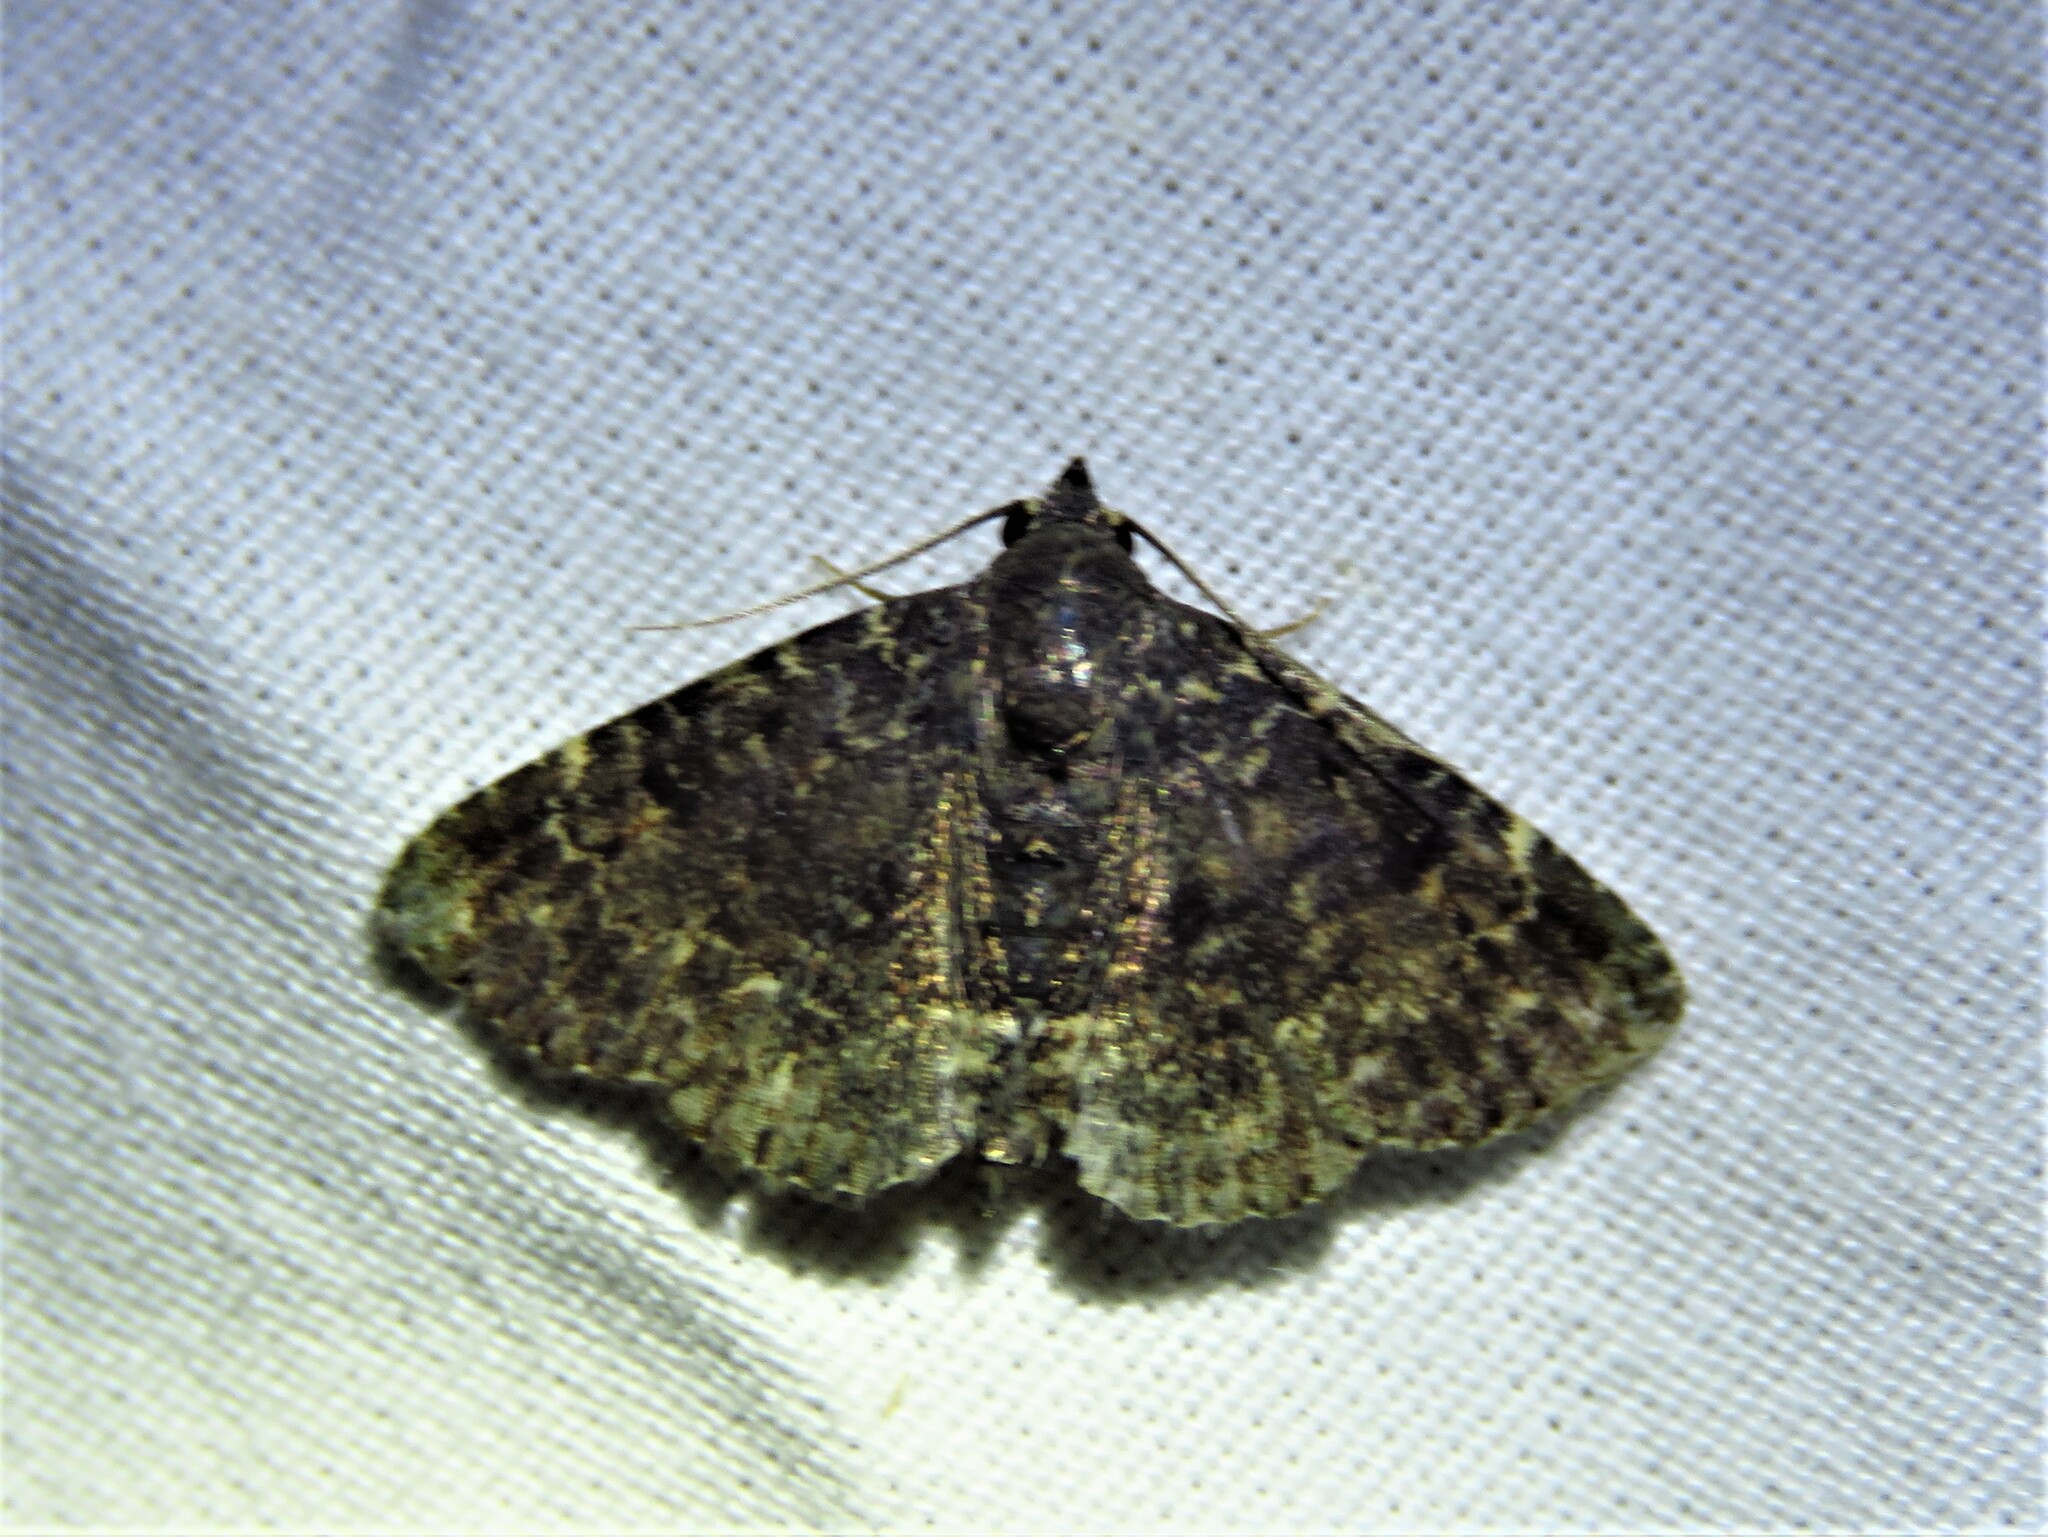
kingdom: Animalia
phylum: Arthropoda
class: Insecta
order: Lepidoptera
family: Erebidae
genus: Metalectra
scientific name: Metalectra diabolica
